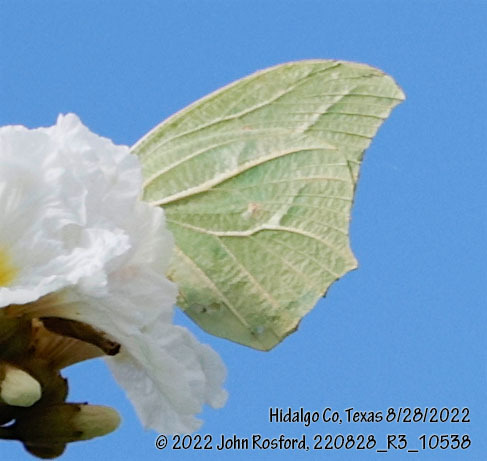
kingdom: Animalia
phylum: Arthropoda
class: Insecta
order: Lepidoptera
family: Pieridae
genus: Anteos
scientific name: Anteos clorinde
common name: White angled sulphur
